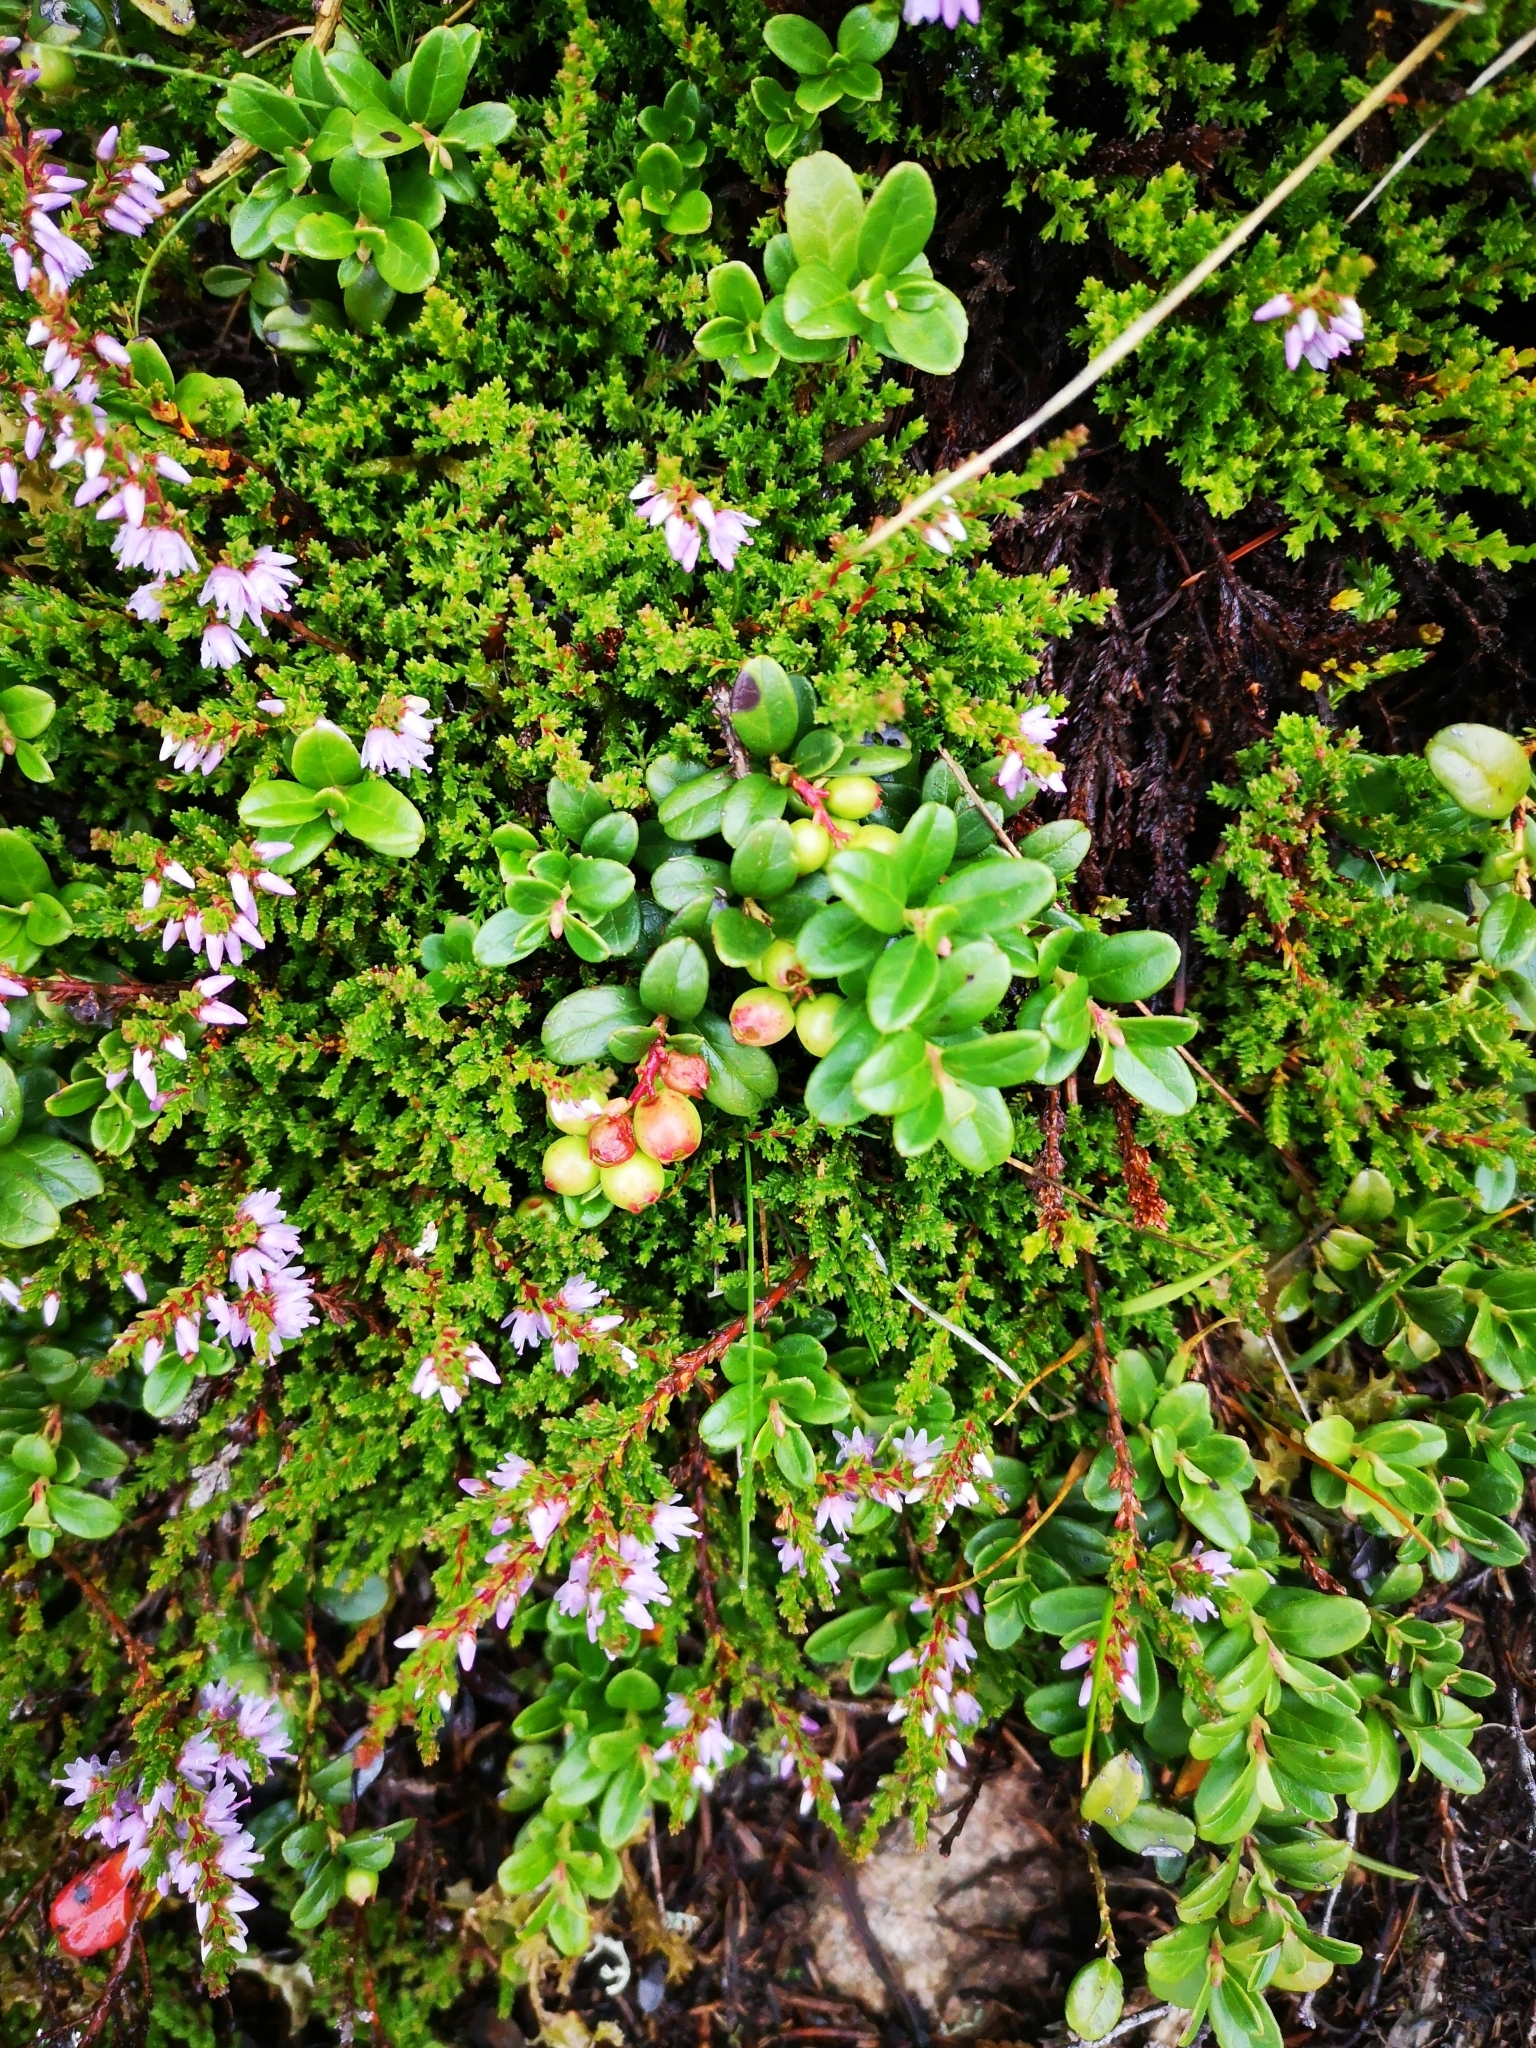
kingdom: Plantae
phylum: Tracheophyta
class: Magnoliopsida
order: Ericales
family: Ericaceae
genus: Vaccinium
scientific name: Vaccinium vitis-idaea
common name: Cowberry
